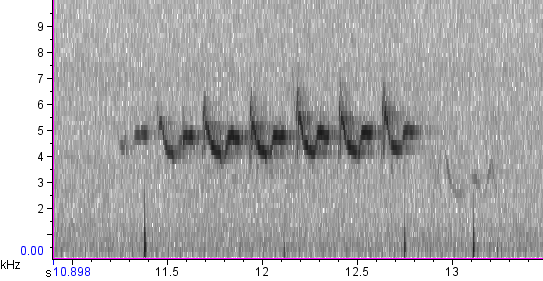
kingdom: Animalia
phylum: Chordata
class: Aves
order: Passeriformes
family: Parulidae
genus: Setophaga
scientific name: Setophaga coronata
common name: Myrtle warbler
